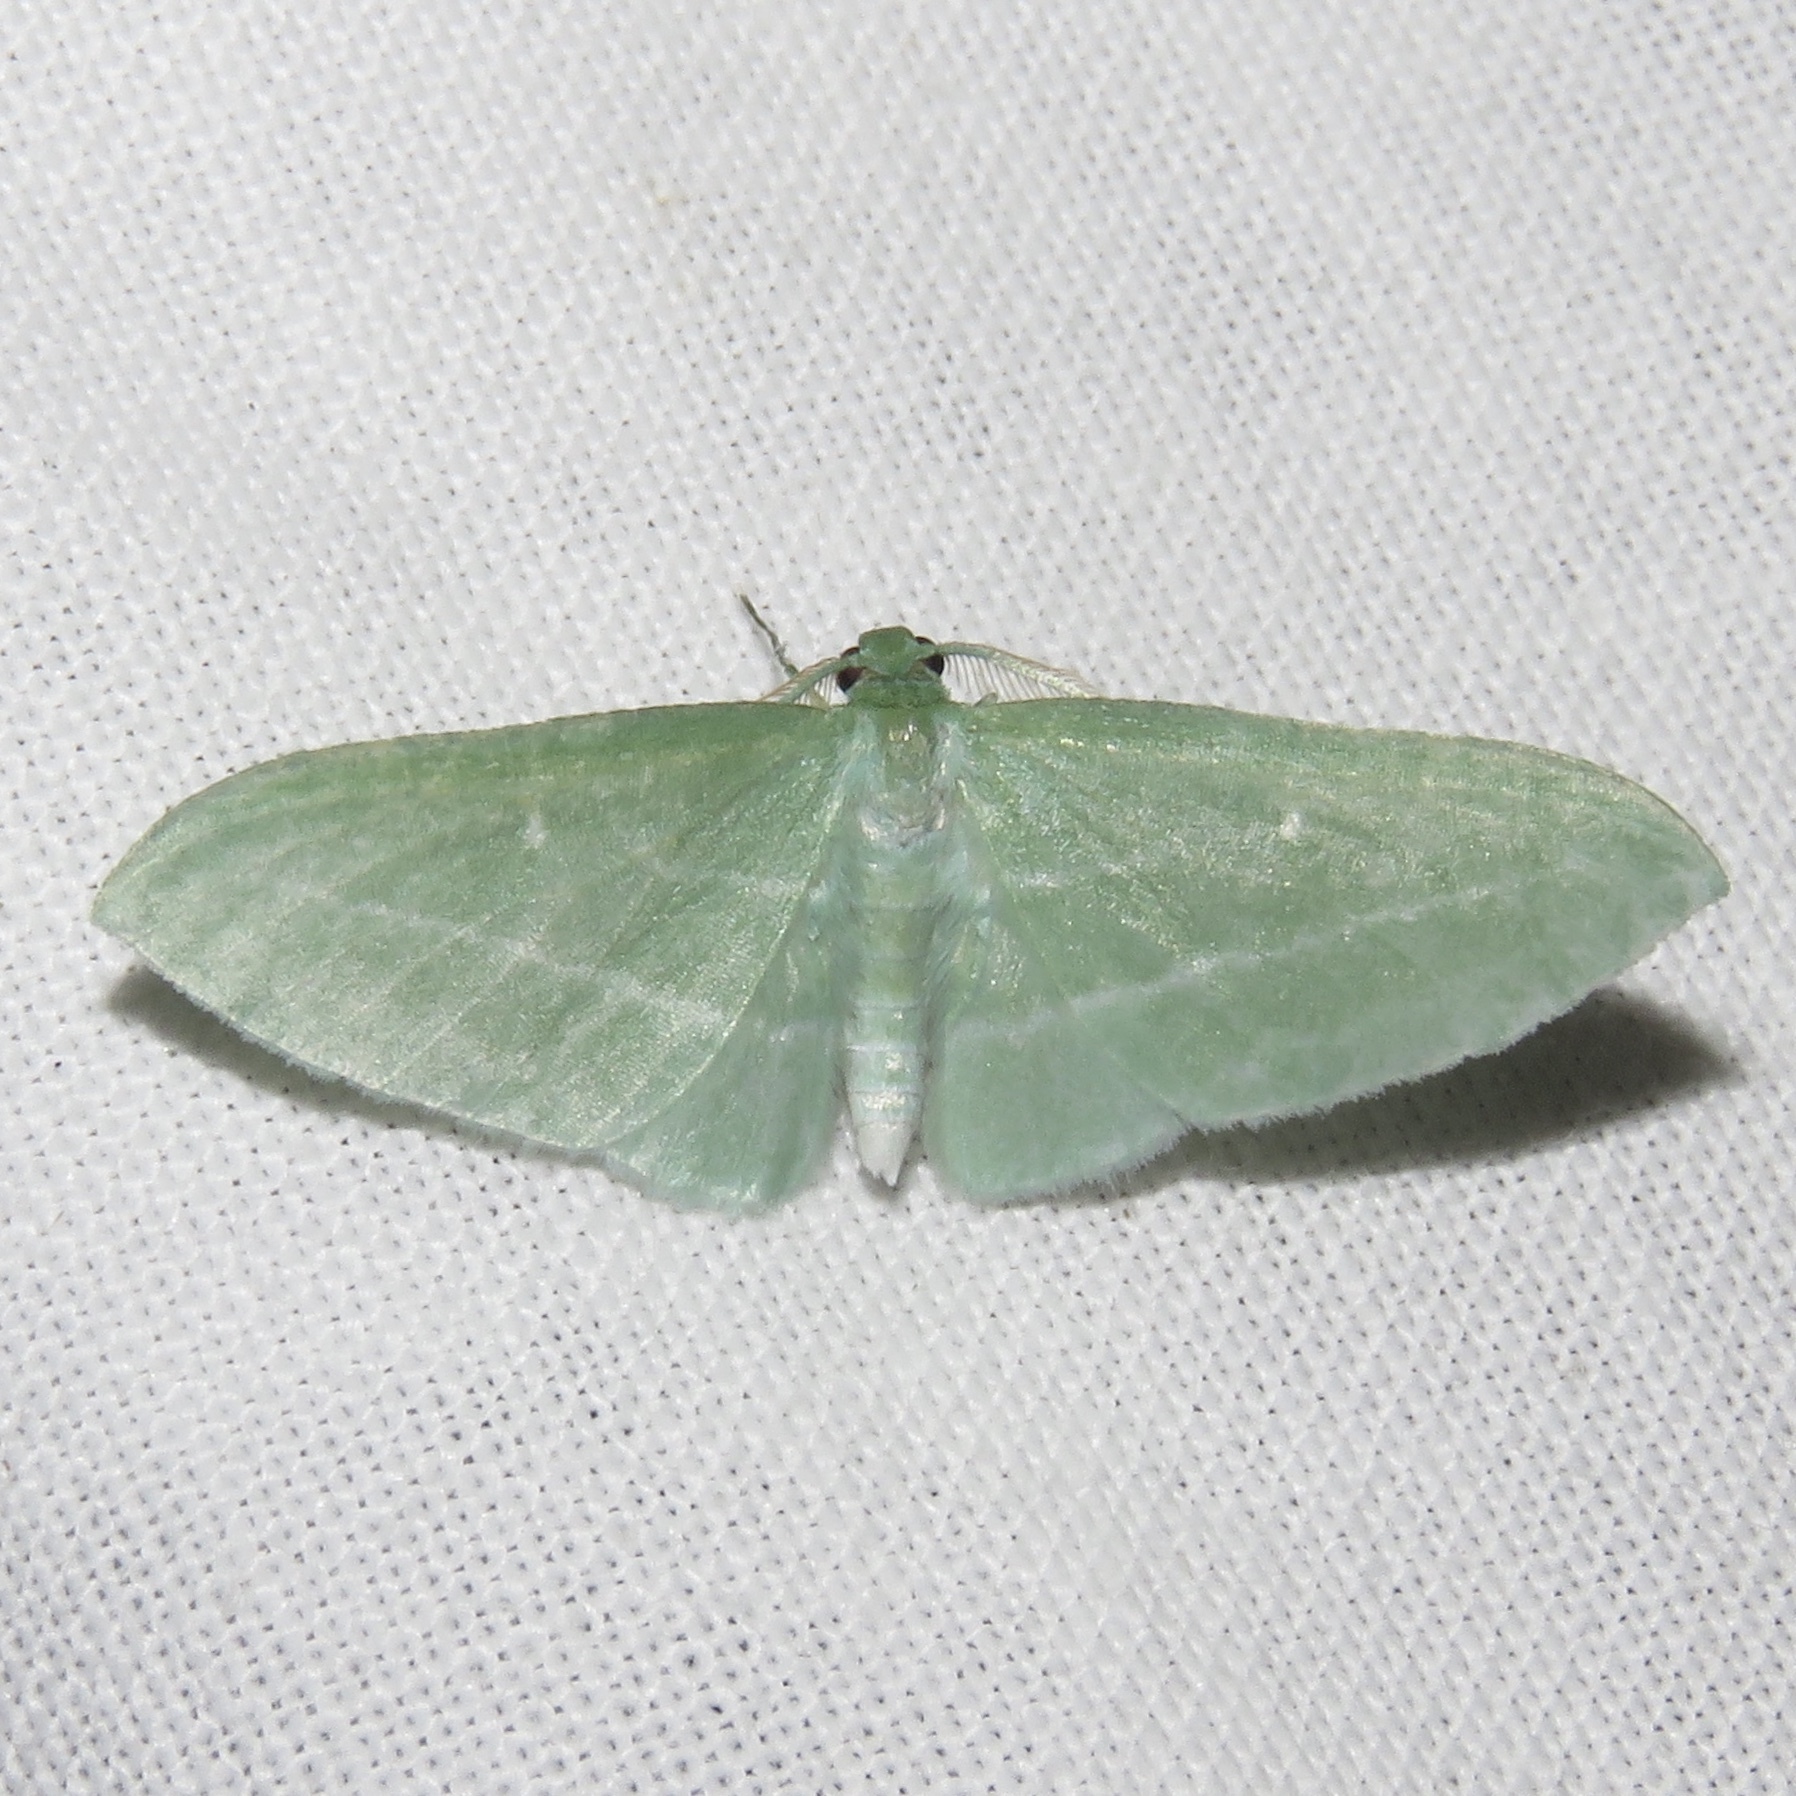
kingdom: Animalia
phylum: Arthropoda
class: Insecta
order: Lepidoptera
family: Geometridae
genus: Dyspteris
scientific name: Dyspteris abortivaria
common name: Bad-wing
